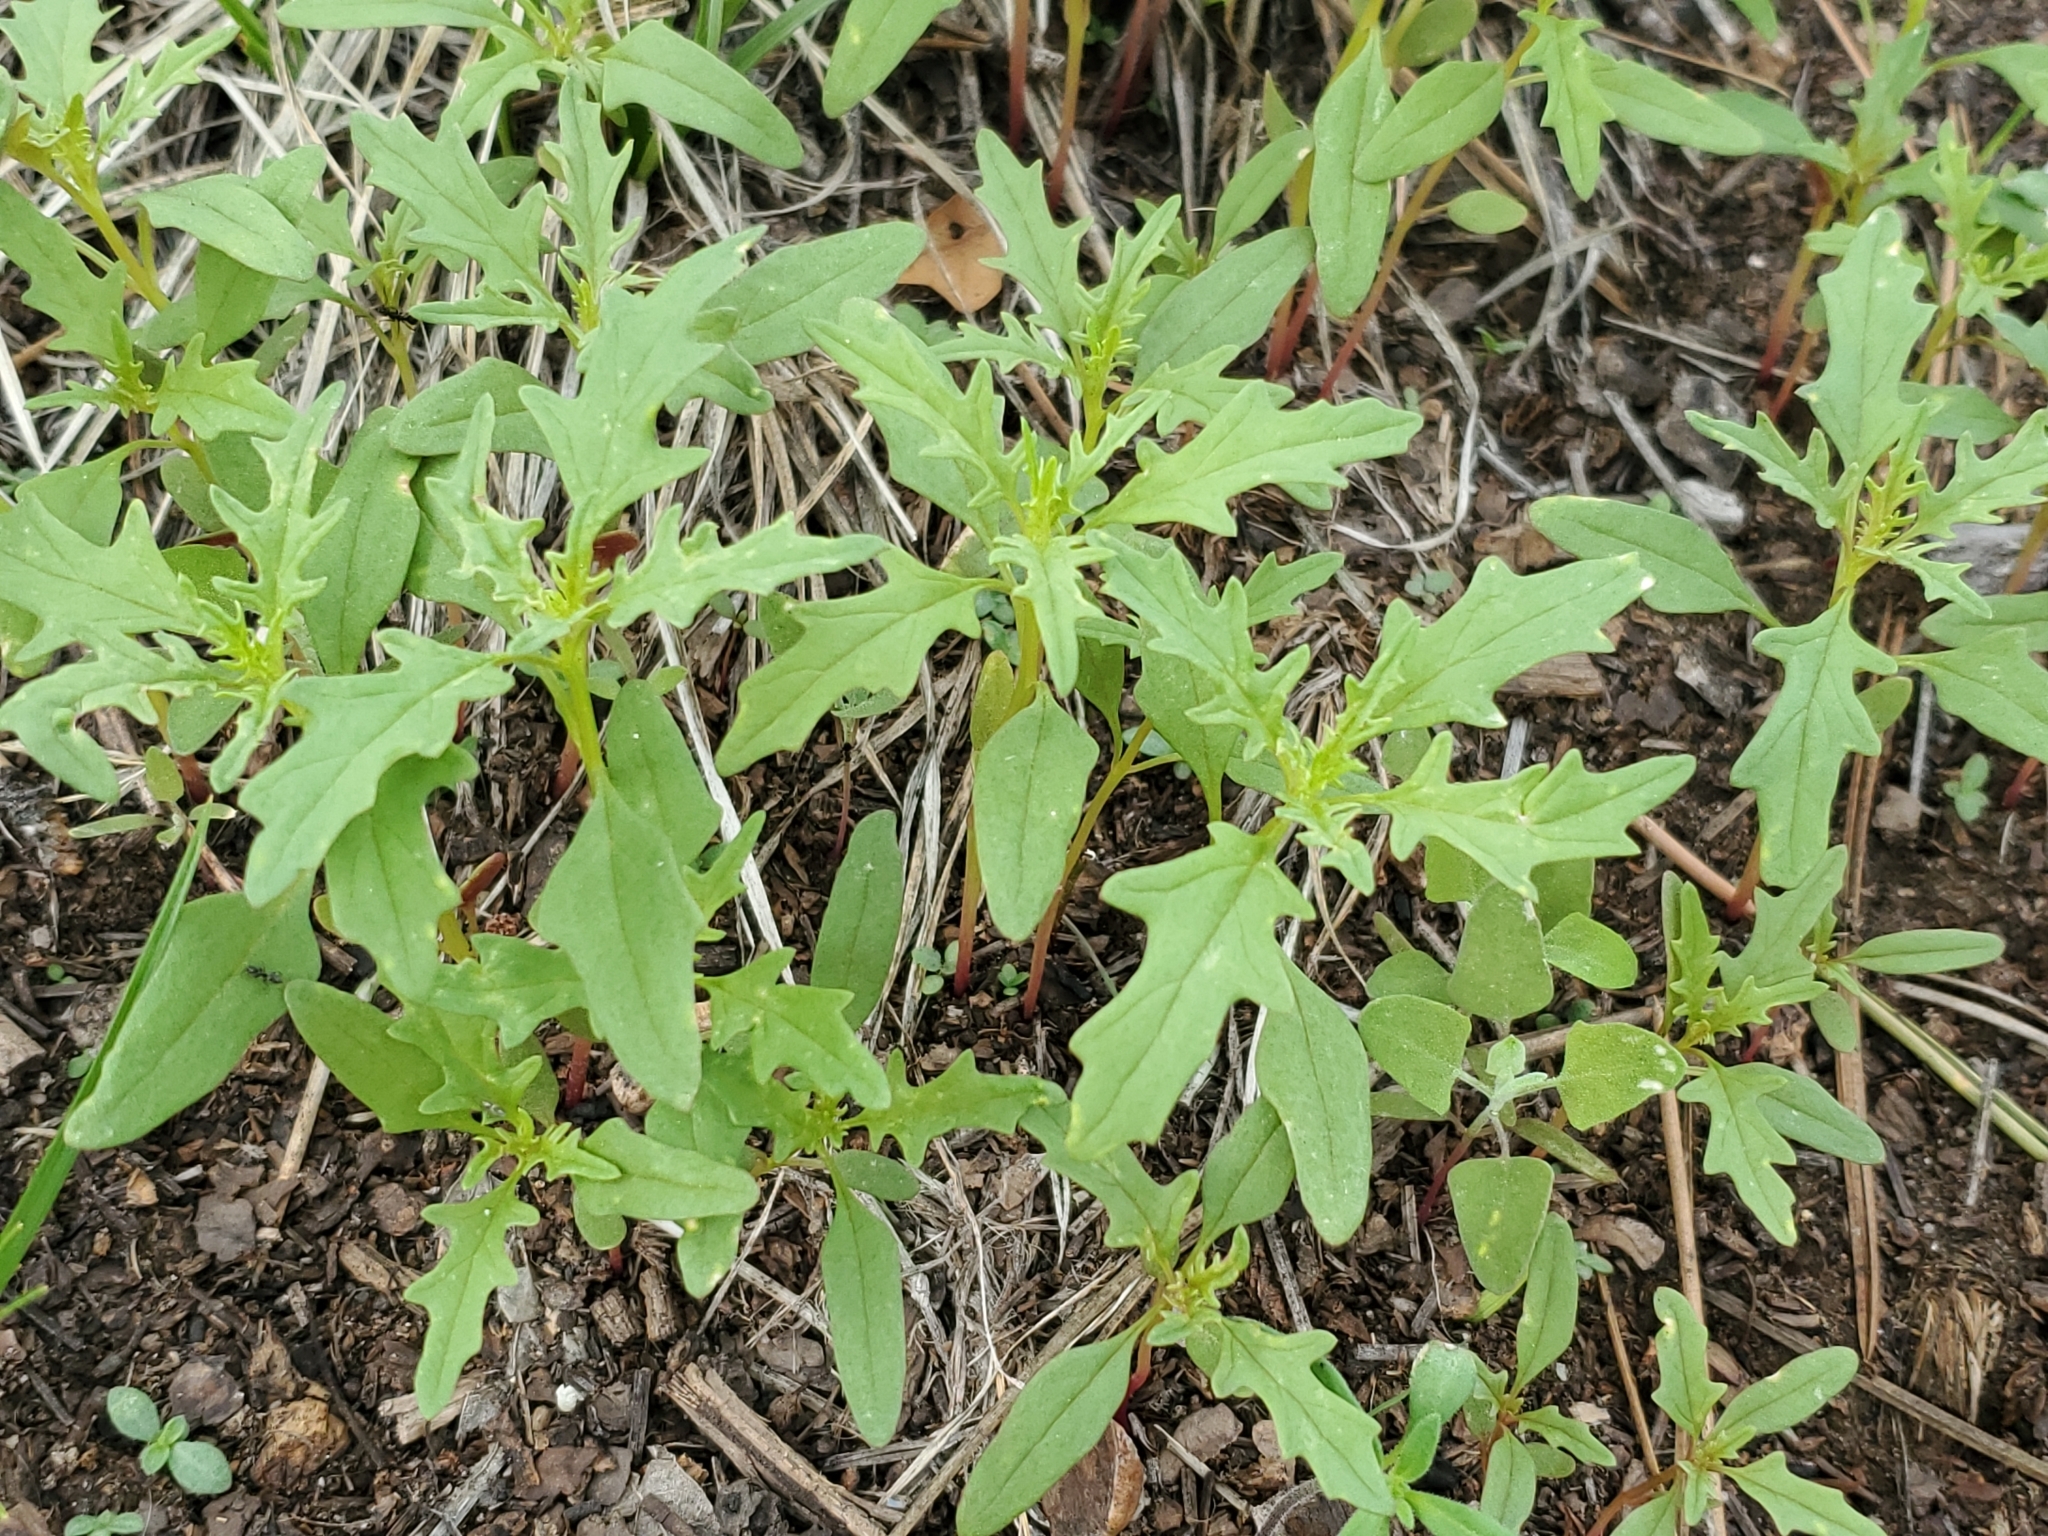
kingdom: Plantae
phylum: Tracheophyta
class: Magnoliopsida
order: Caryophyllales
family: Amaranthaceae
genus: Dysphania
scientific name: Dysphania incisa
